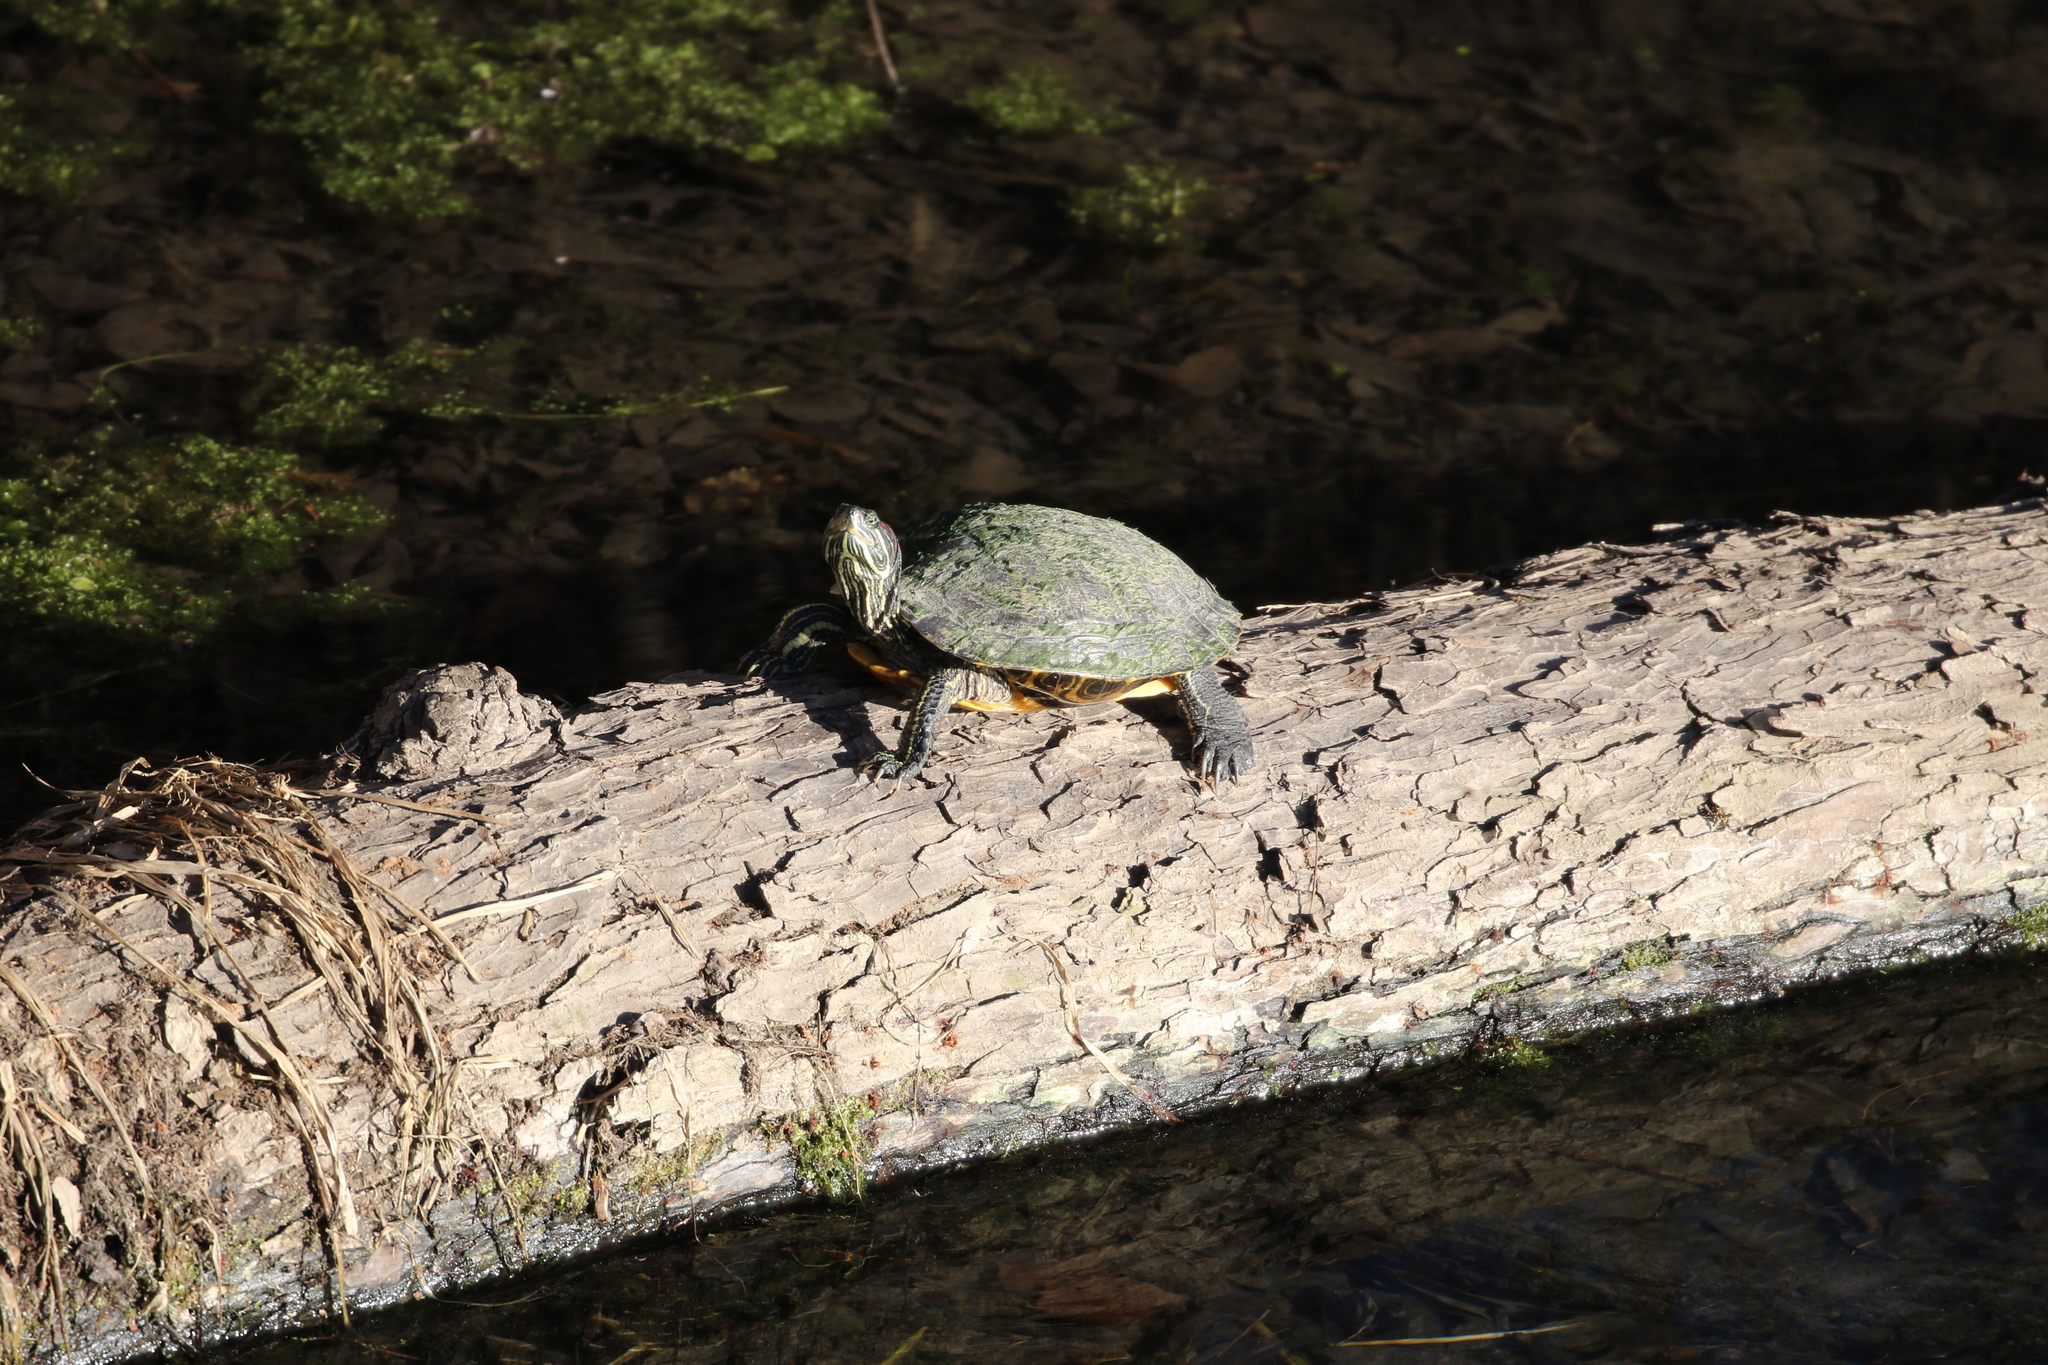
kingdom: Animalia
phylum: Chordata
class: Testudines
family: Emydidae
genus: Trachemys
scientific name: Trachemys scripta
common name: Slider
